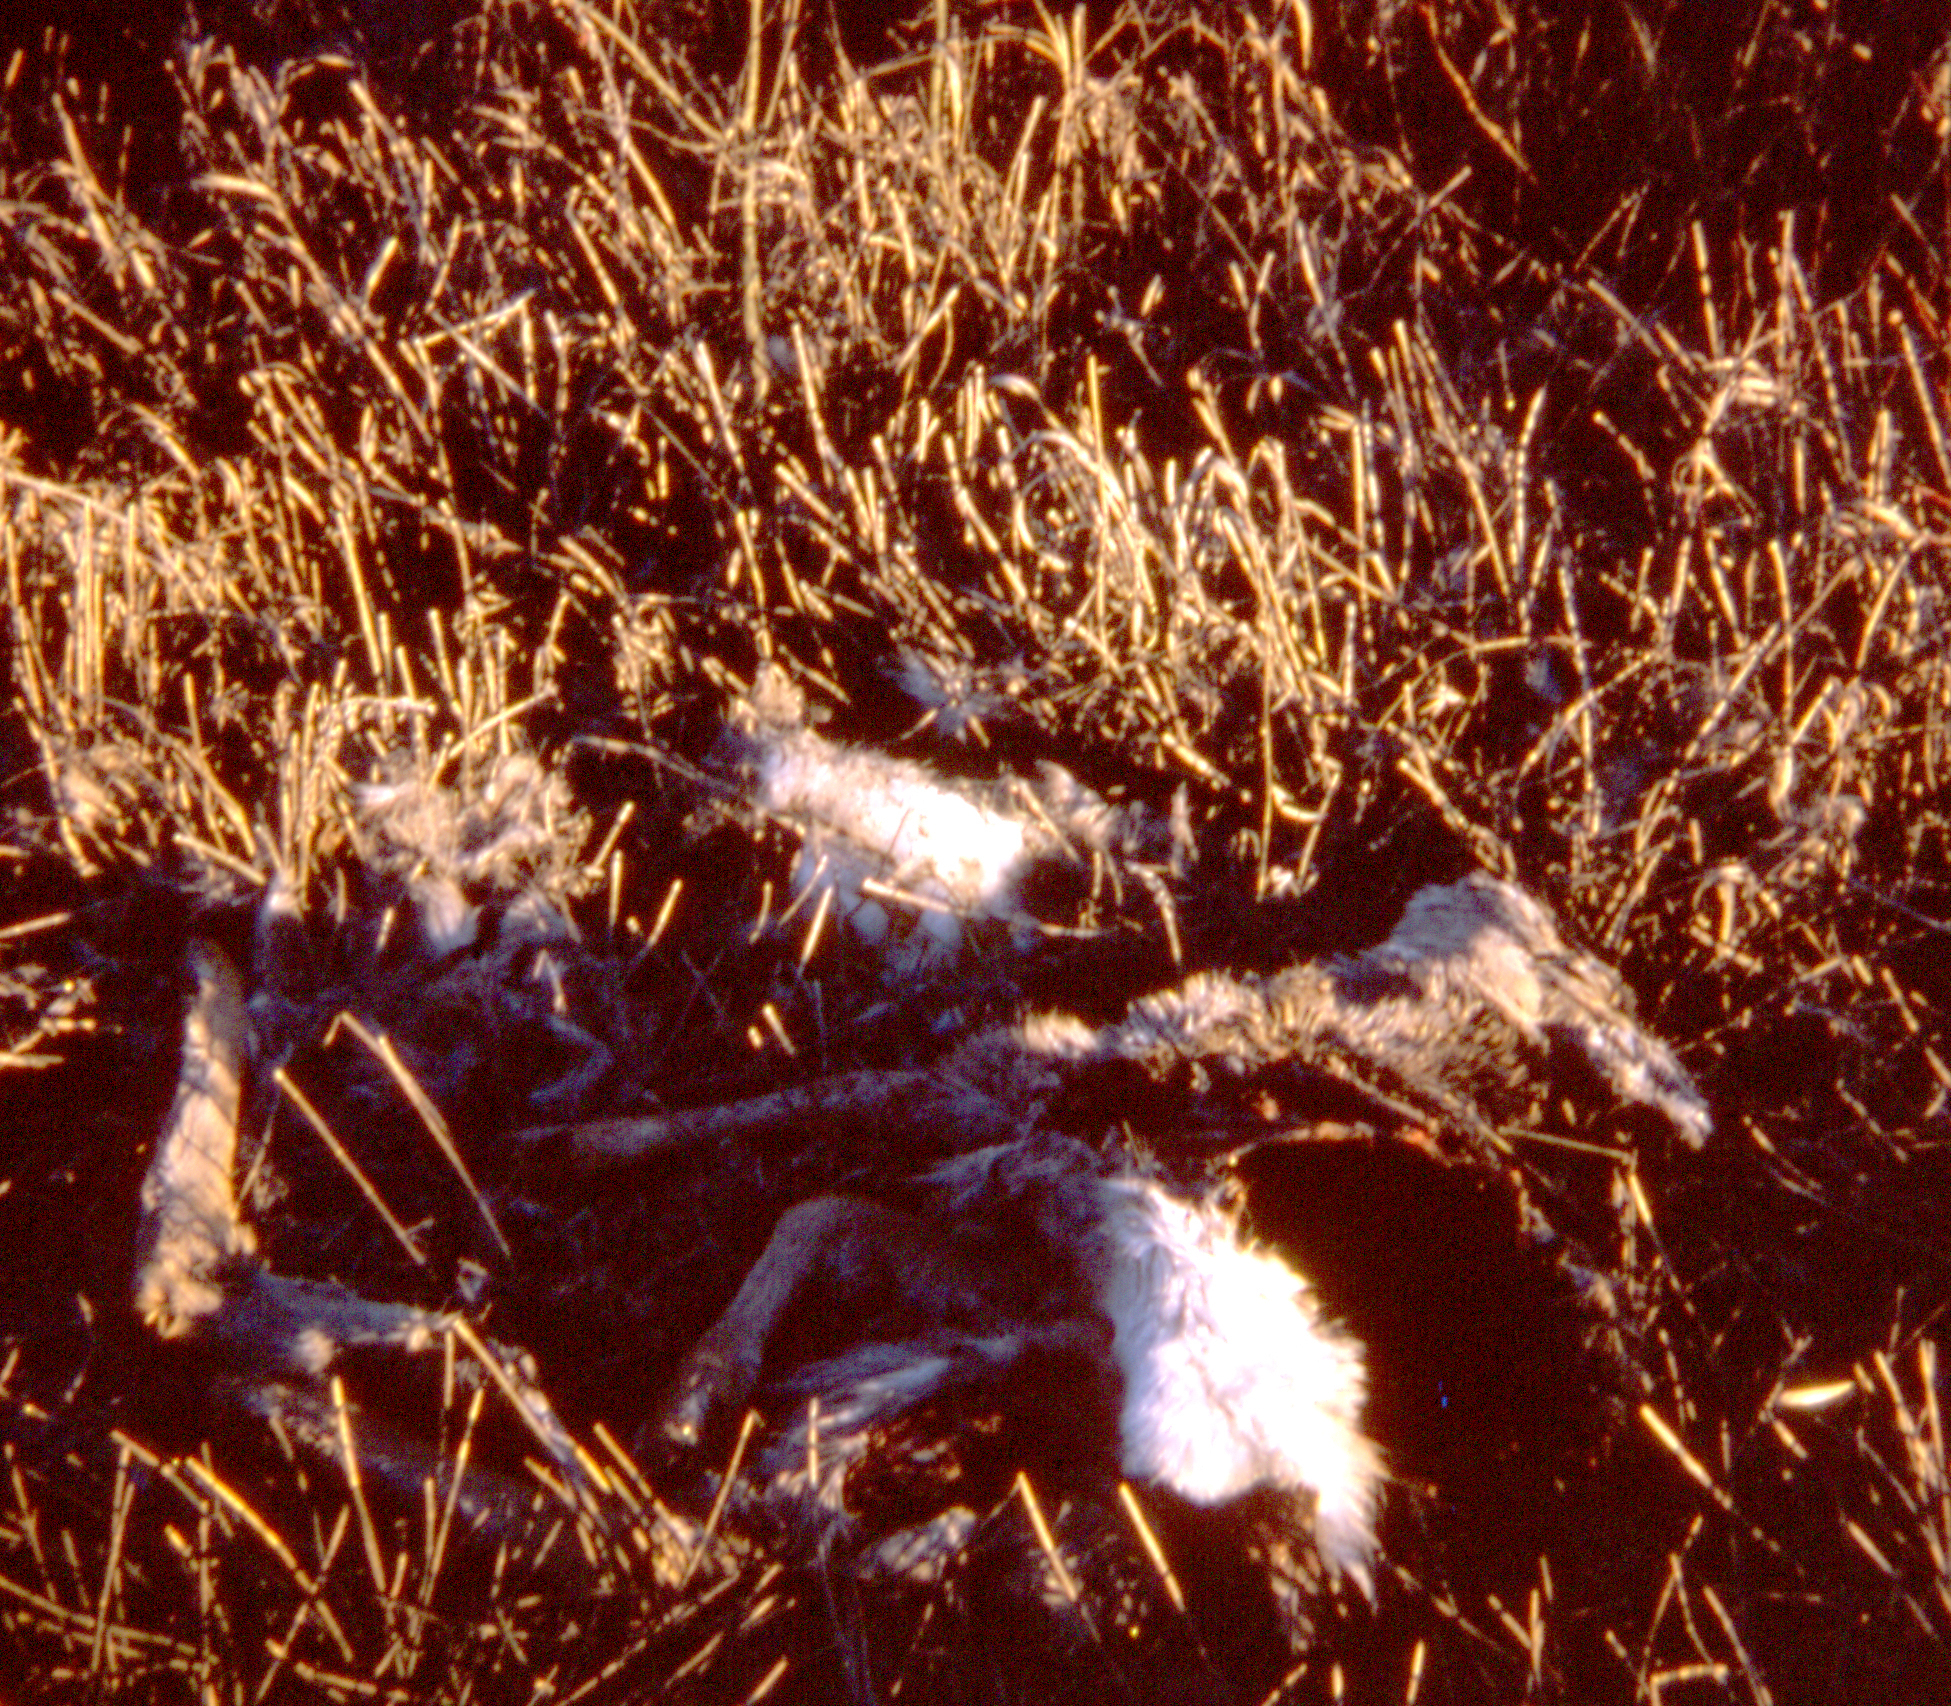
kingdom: Animalia
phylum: Chordata
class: Mammalia
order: Artiodactyla
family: Cervidae
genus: Odocoileus
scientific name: Odocoileus virginianus
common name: White-tailed deer
